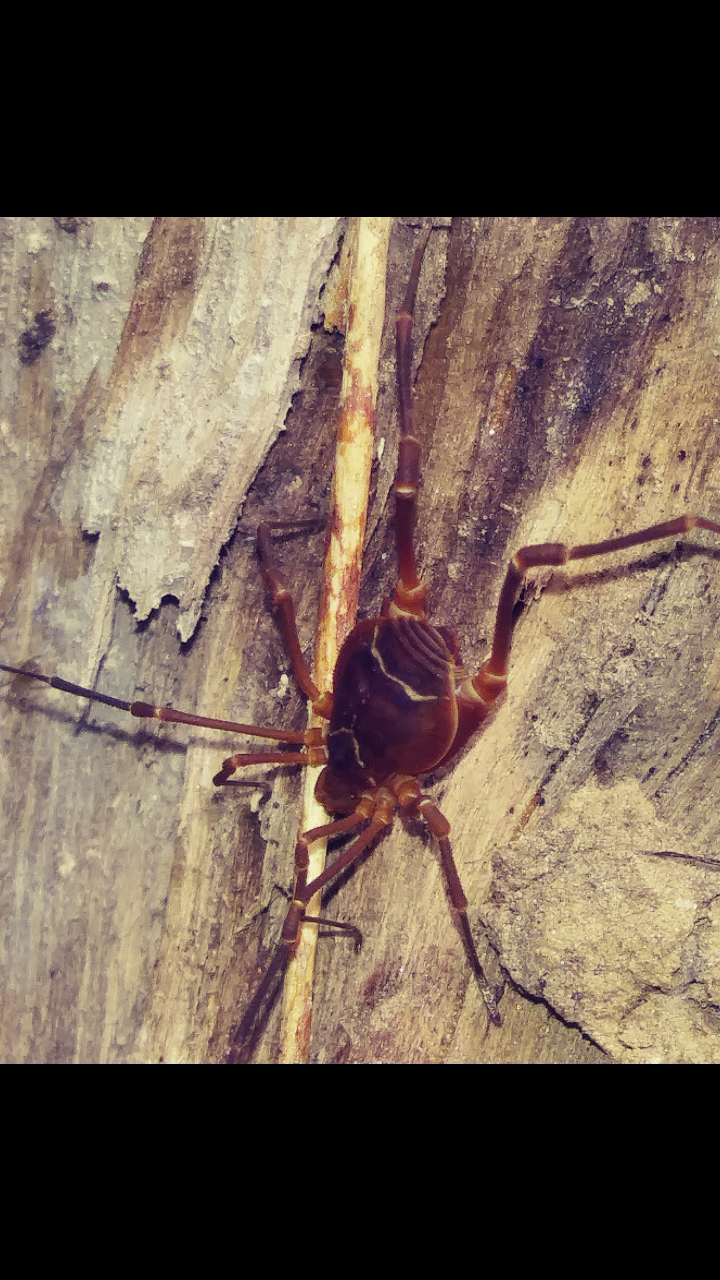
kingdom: Animalia
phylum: Arthropoda
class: Arachnida
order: Opiliones
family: Cosmetidae
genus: Libitioides
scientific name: Libitioides sayi
